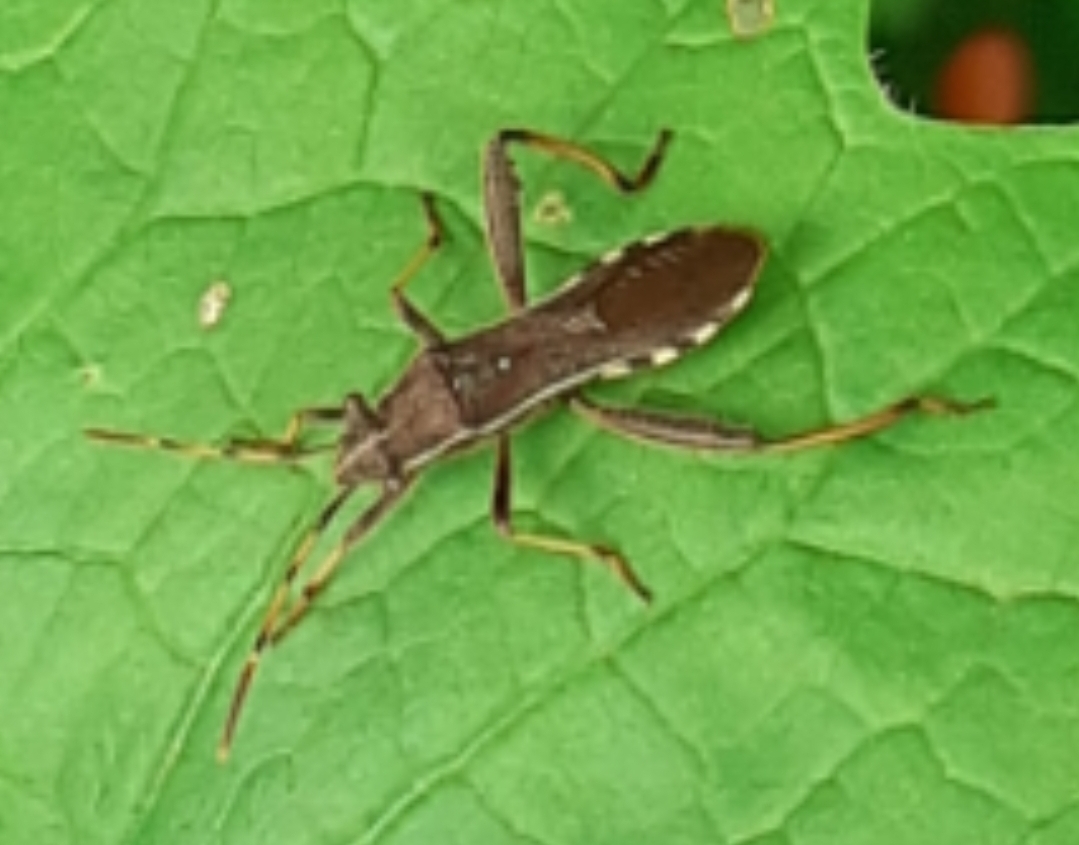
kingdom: Animalia
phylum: Arthropoda
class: Insecta
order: Hemiptera
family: Alydidae
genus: Camptopus
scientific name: Camptopus lateralis
